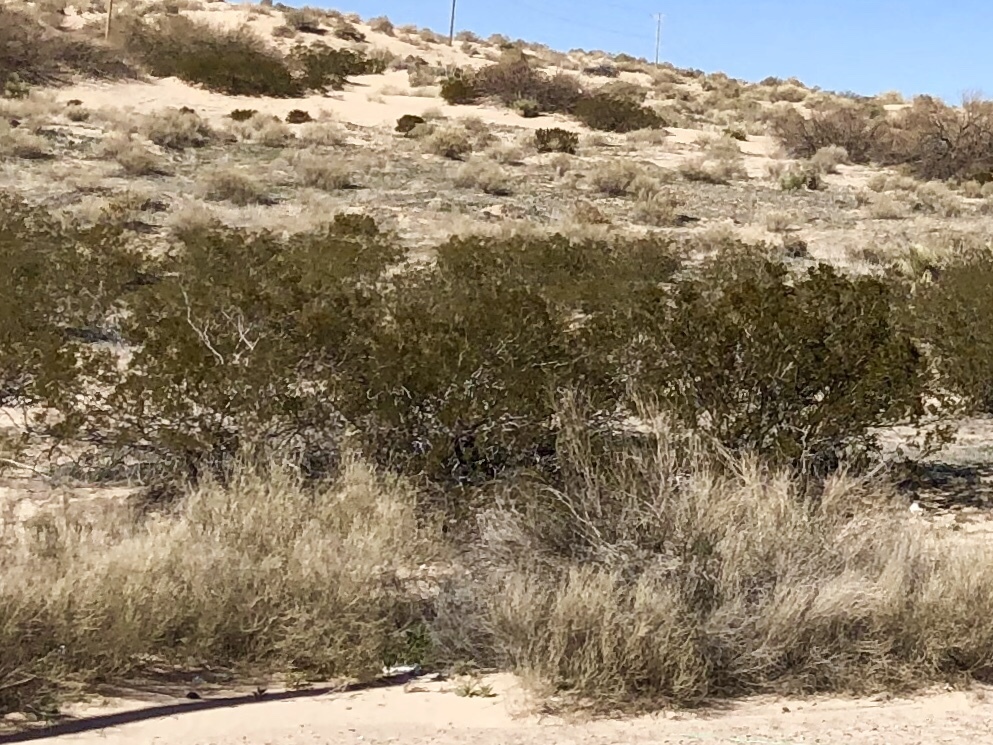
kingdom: Plantae
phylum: Tracheophyta
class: Magnoliopsida
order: Zygophyllales
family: Zygophyllaceae
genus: Larrea
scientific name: Larrea tridentata
